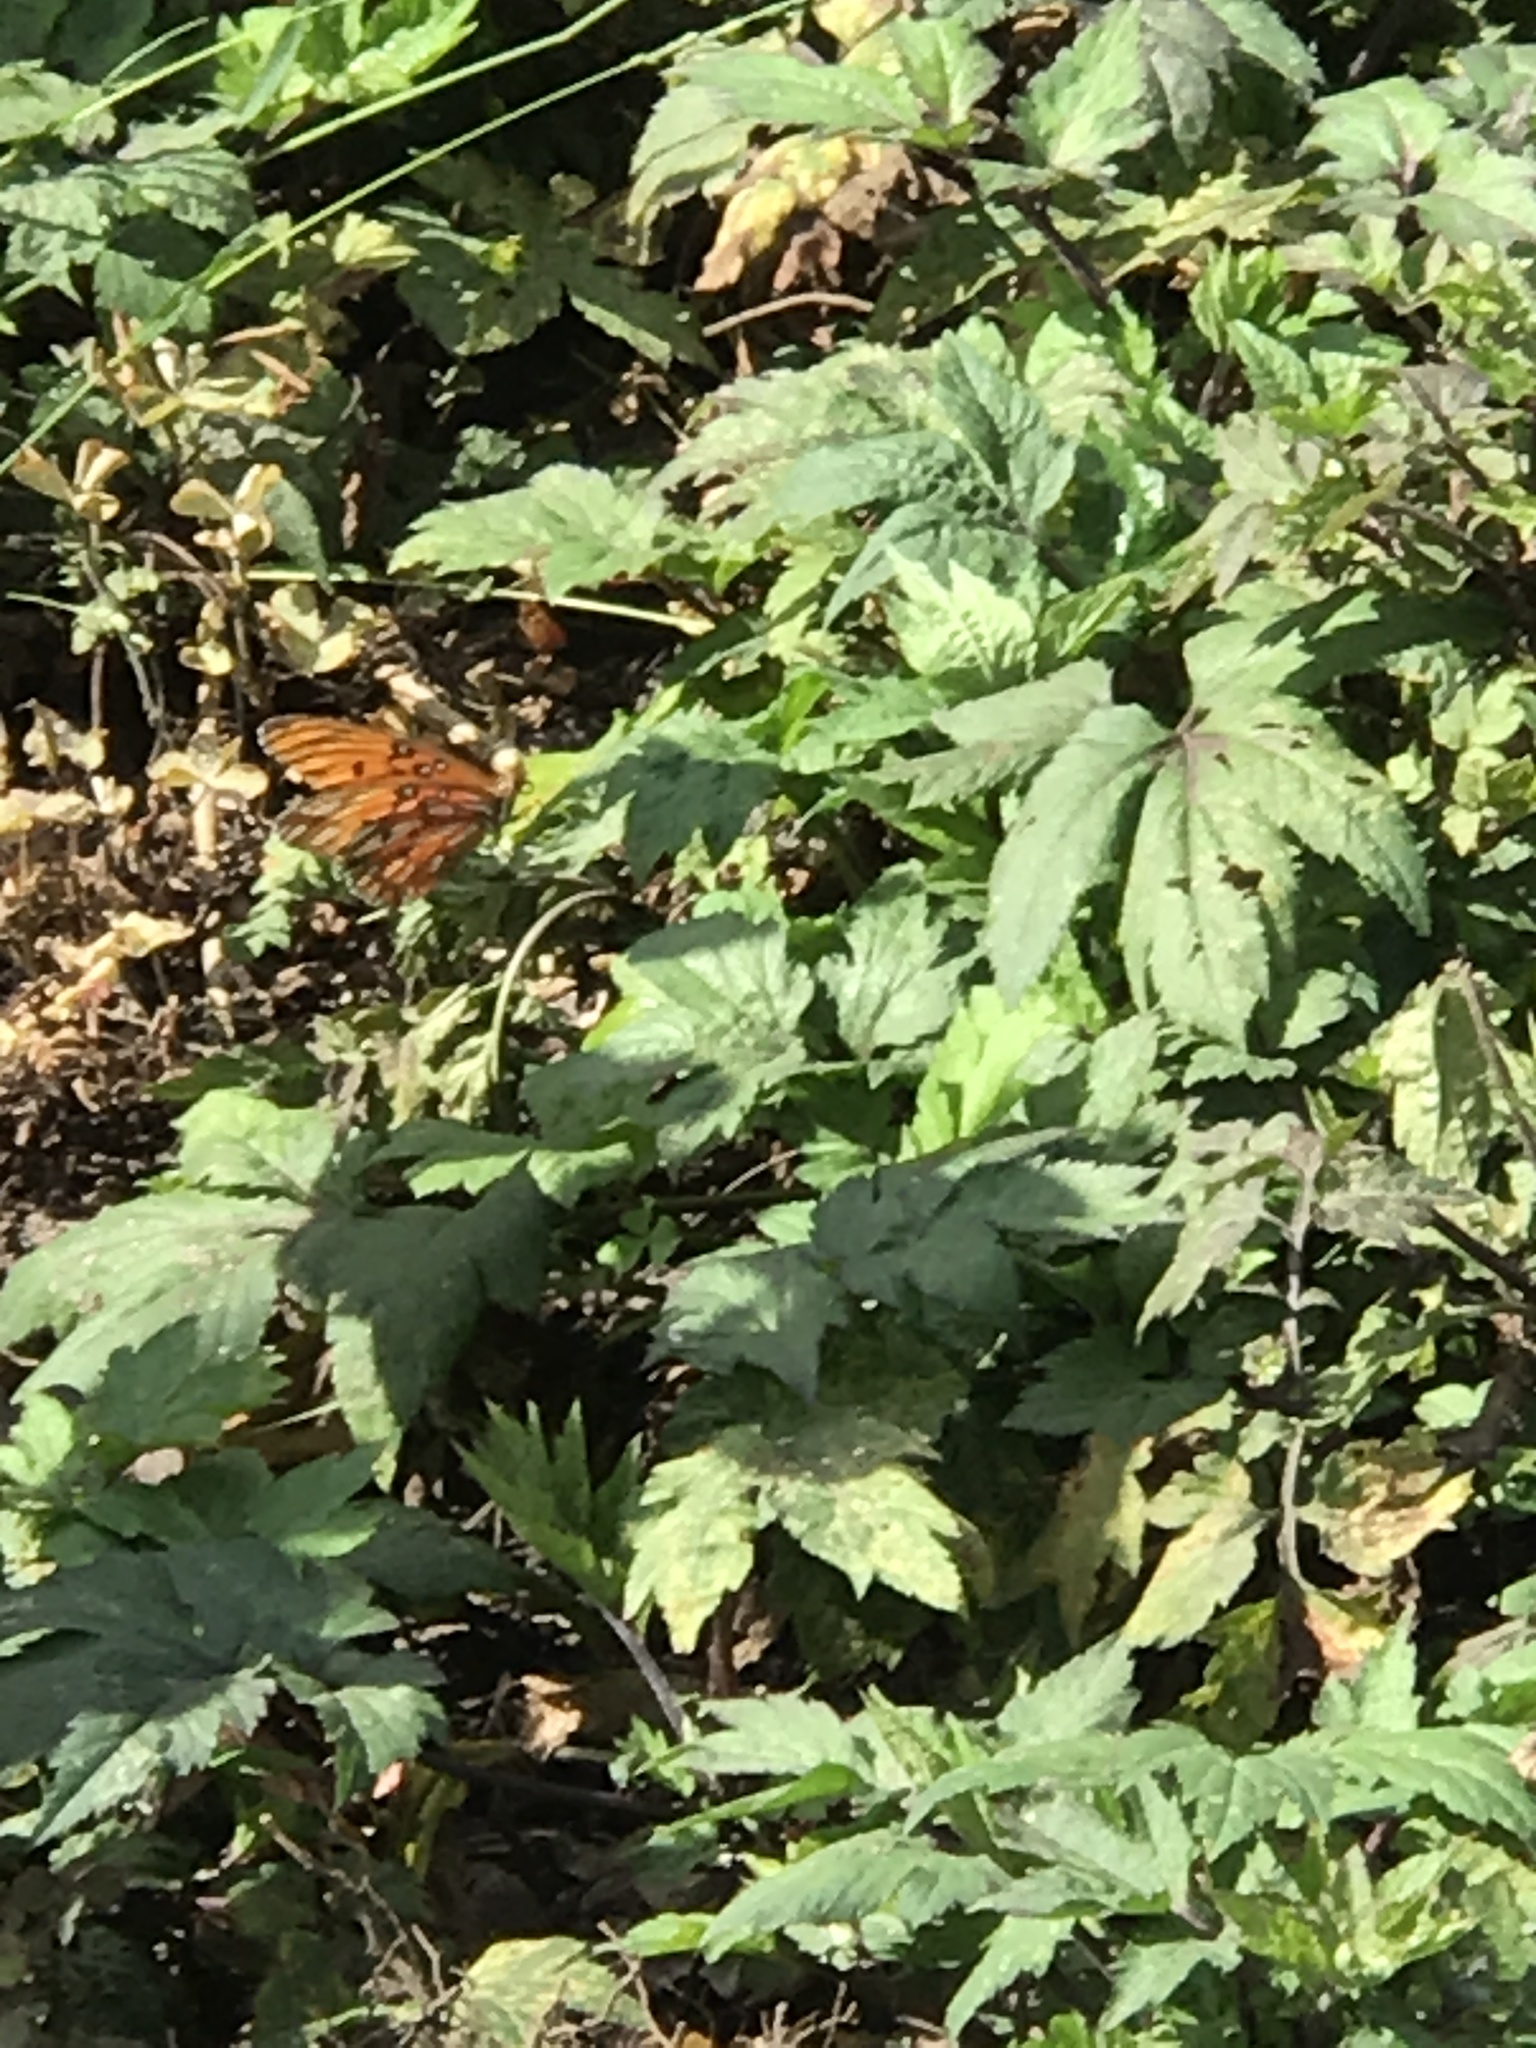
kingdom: Animalia
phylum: Arthropoda
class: Insecta
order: Lepidoptera
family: Nymphalidae
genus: Dione
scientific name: Dione vanillae
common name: Gulf fritillary
